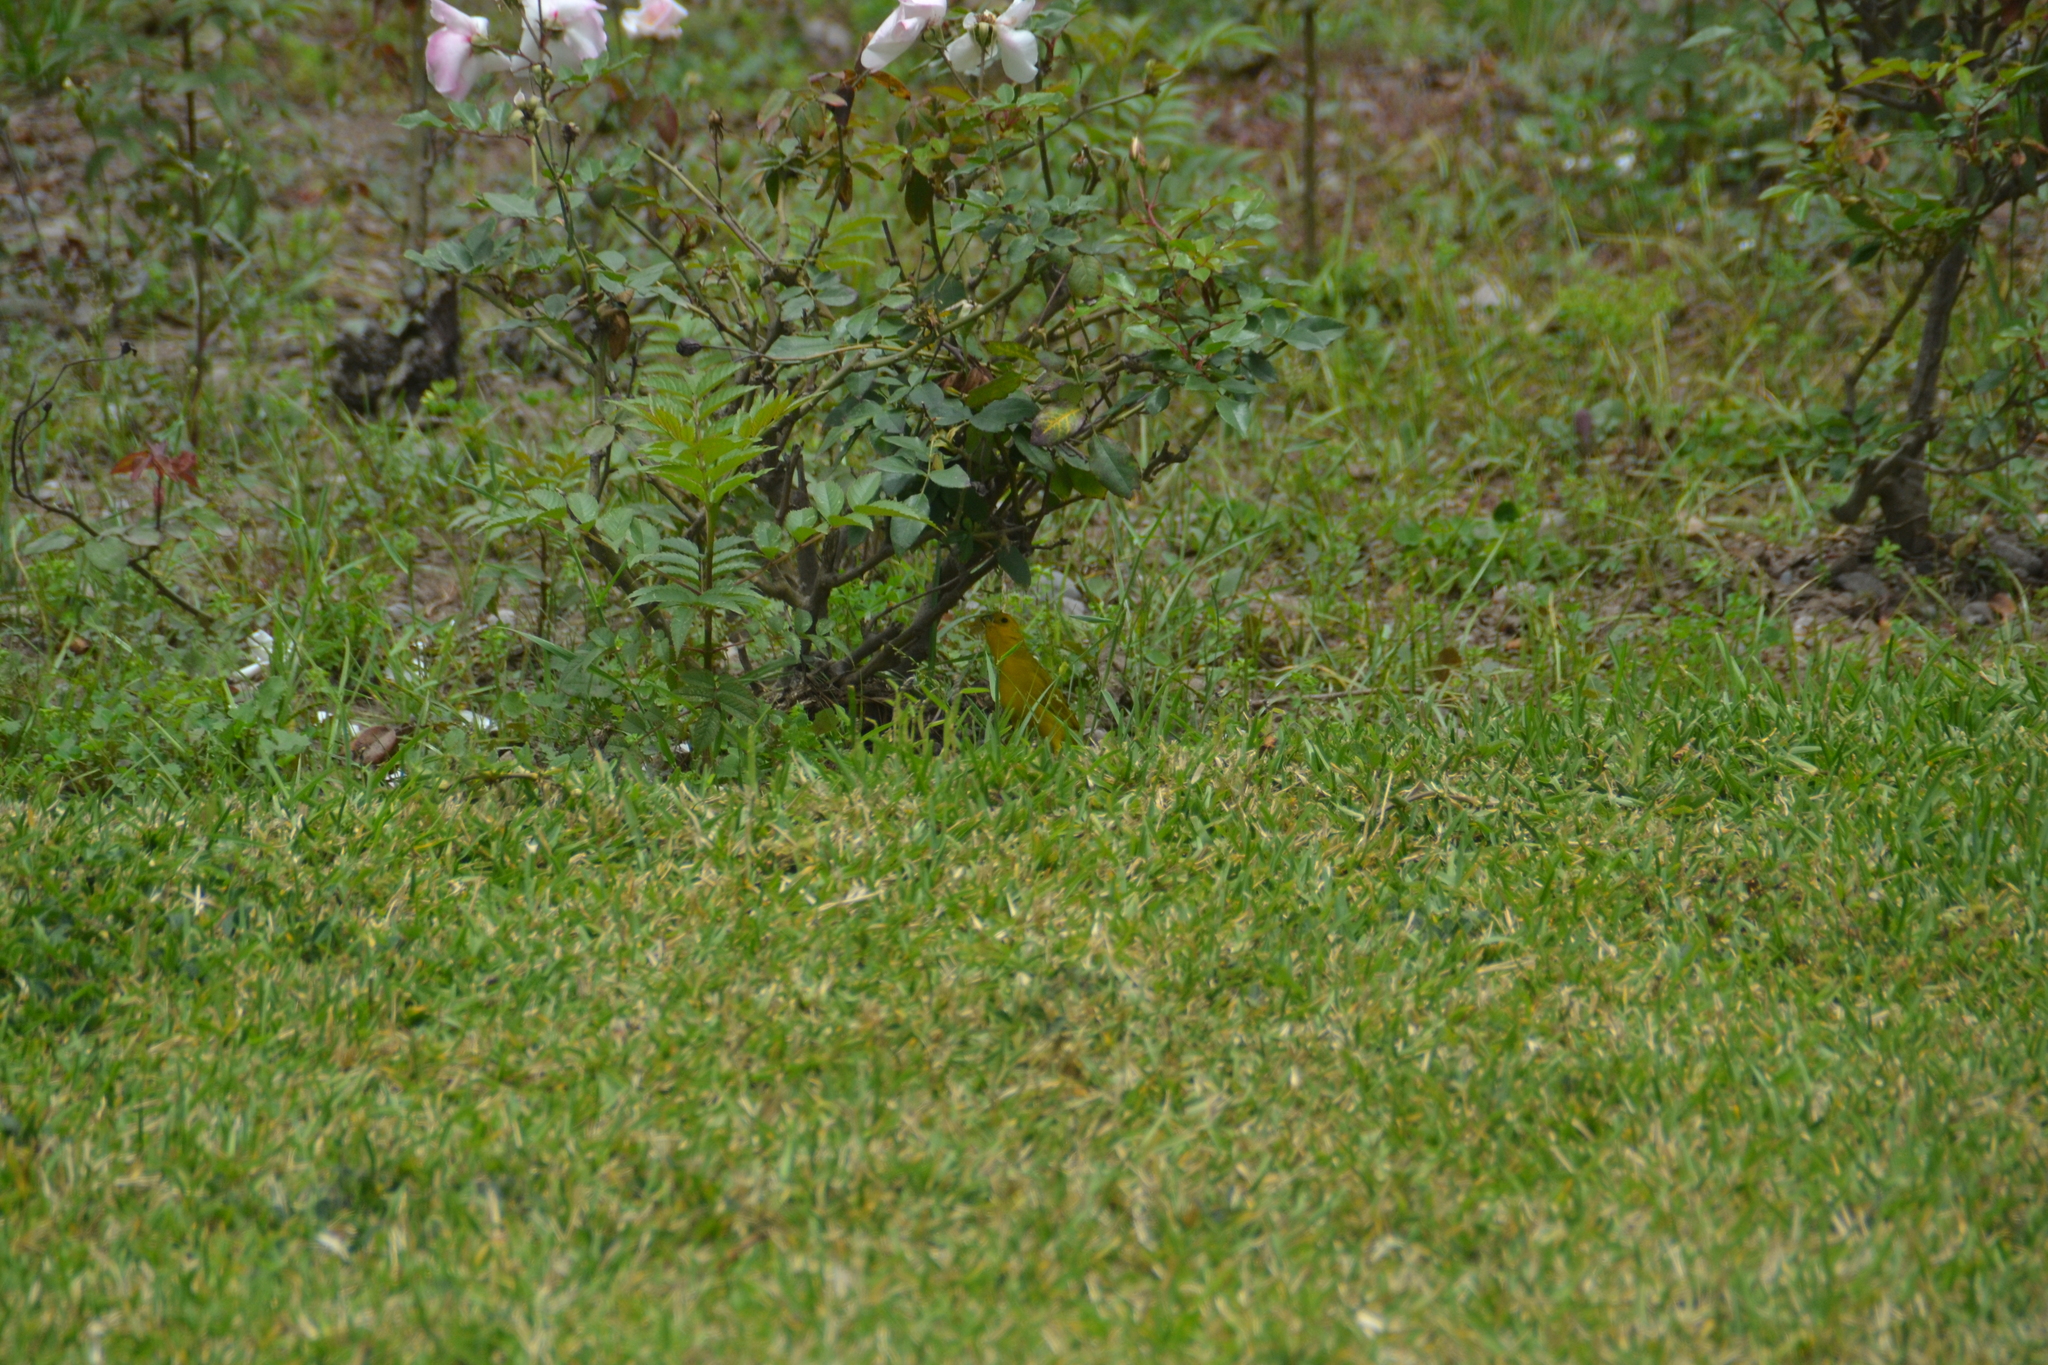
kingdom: Animalia
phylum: Chordata
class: Aves
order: Passeriformes
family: Thraupidae
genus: Sicalis
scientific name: Sicalis flaveola
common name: Saffron finch
